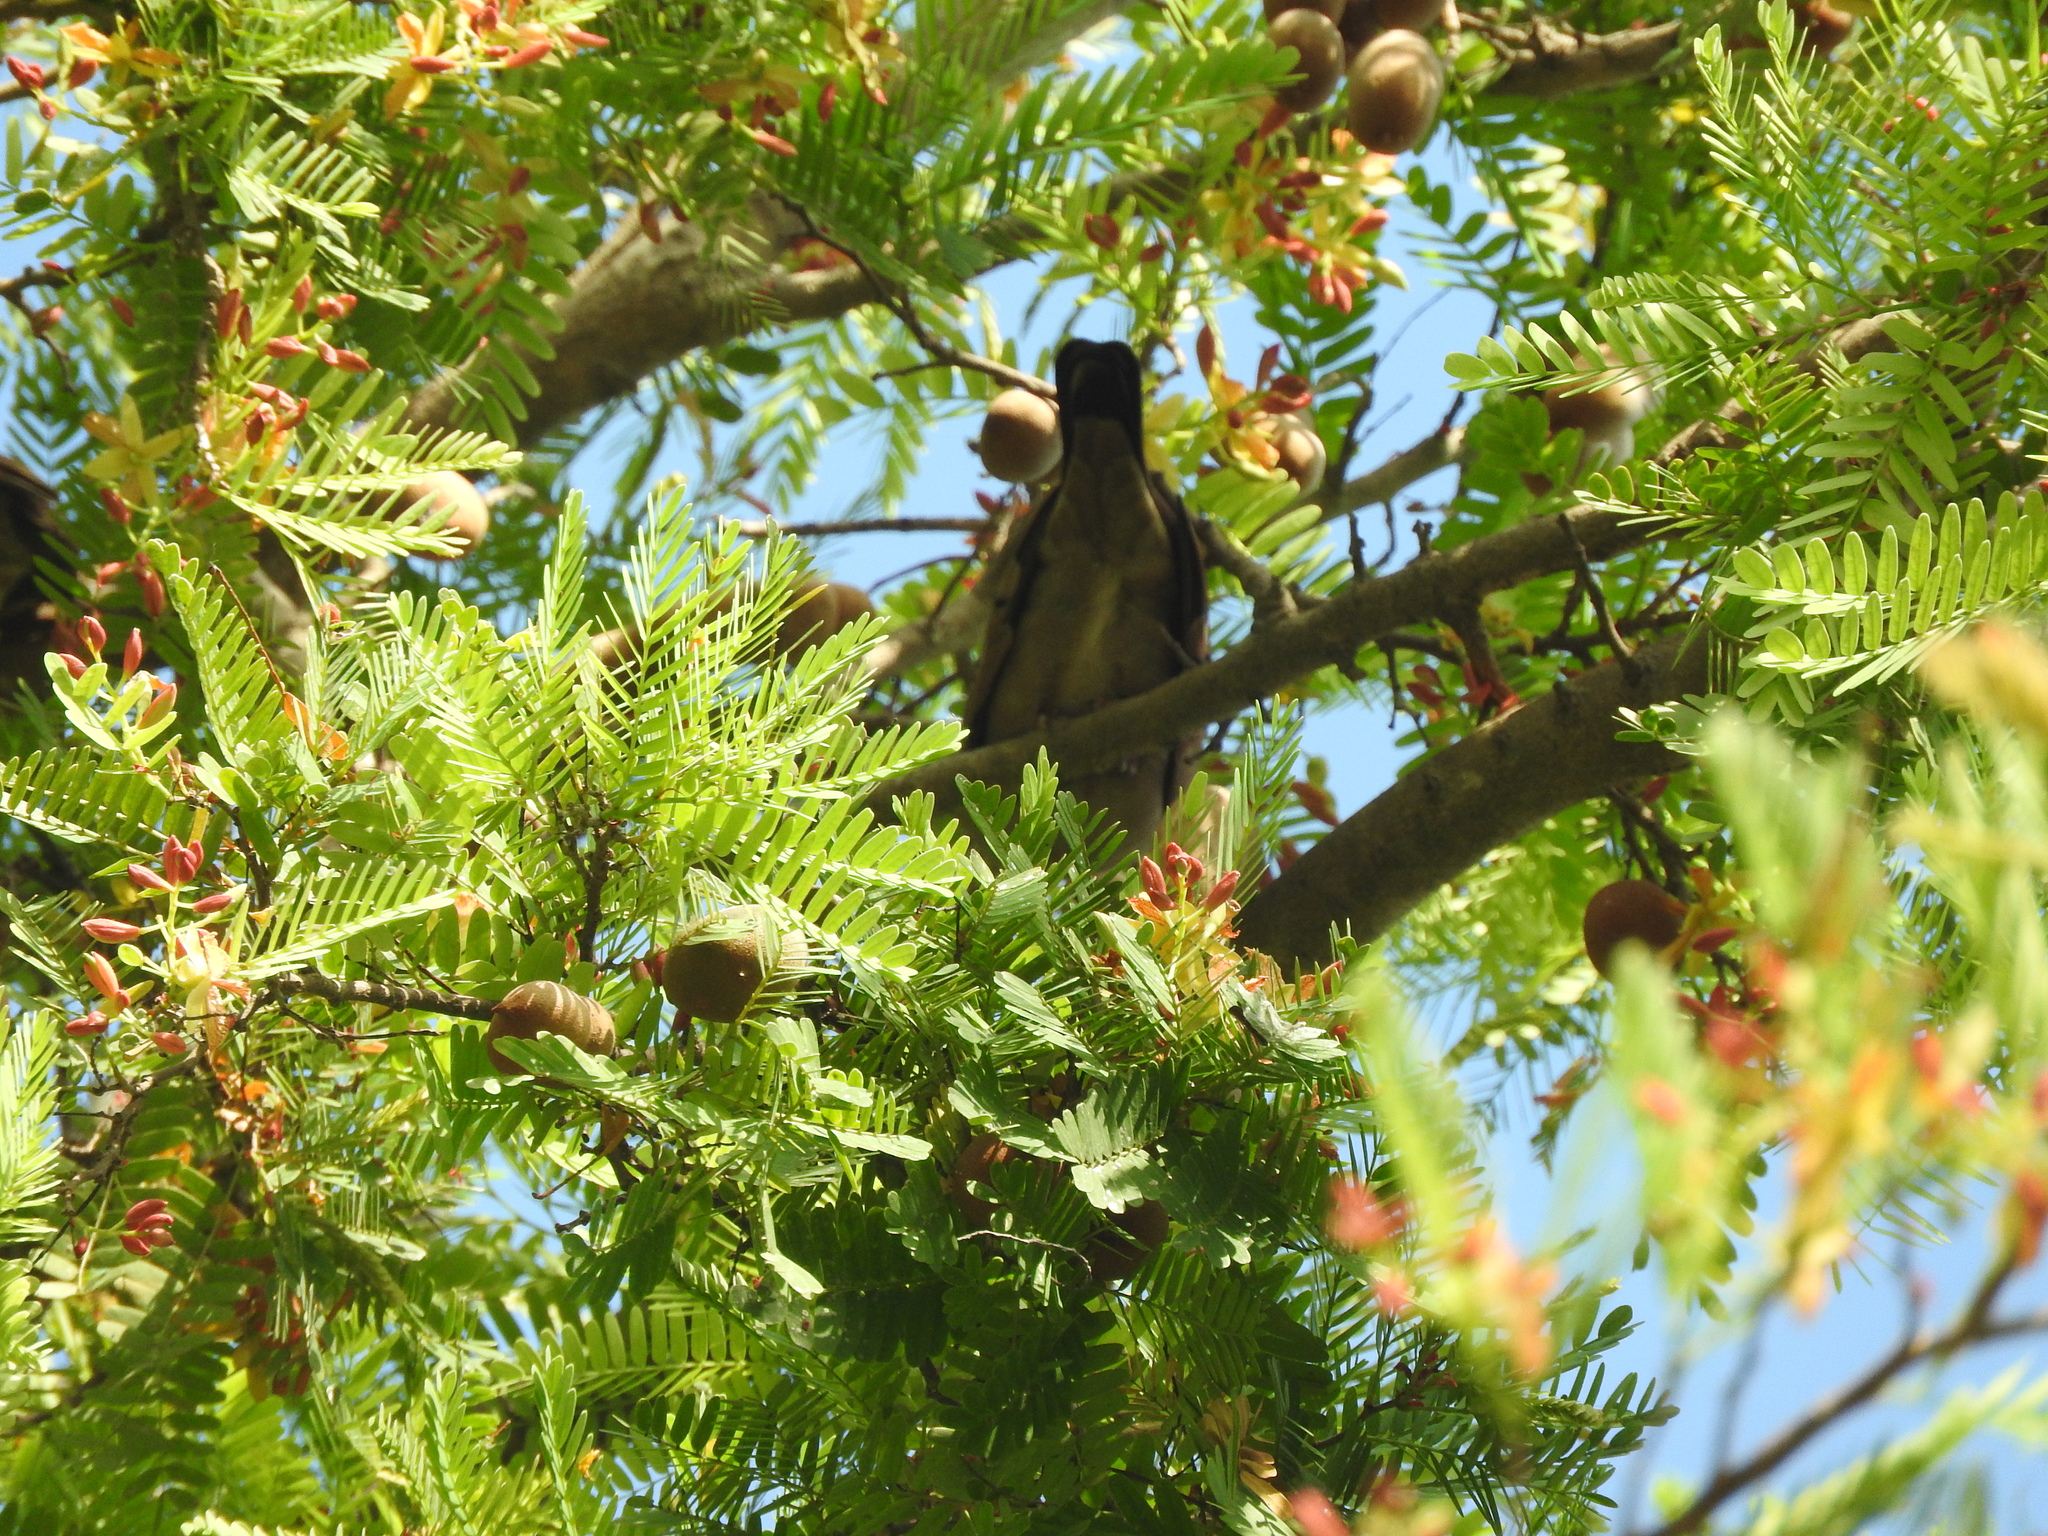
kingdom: Animalia
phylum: Chordata
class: Aves
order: Columbiformes
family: Columbidae
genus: Columbina
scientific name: Columbina talpacoti
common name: Ruddy ground dove
